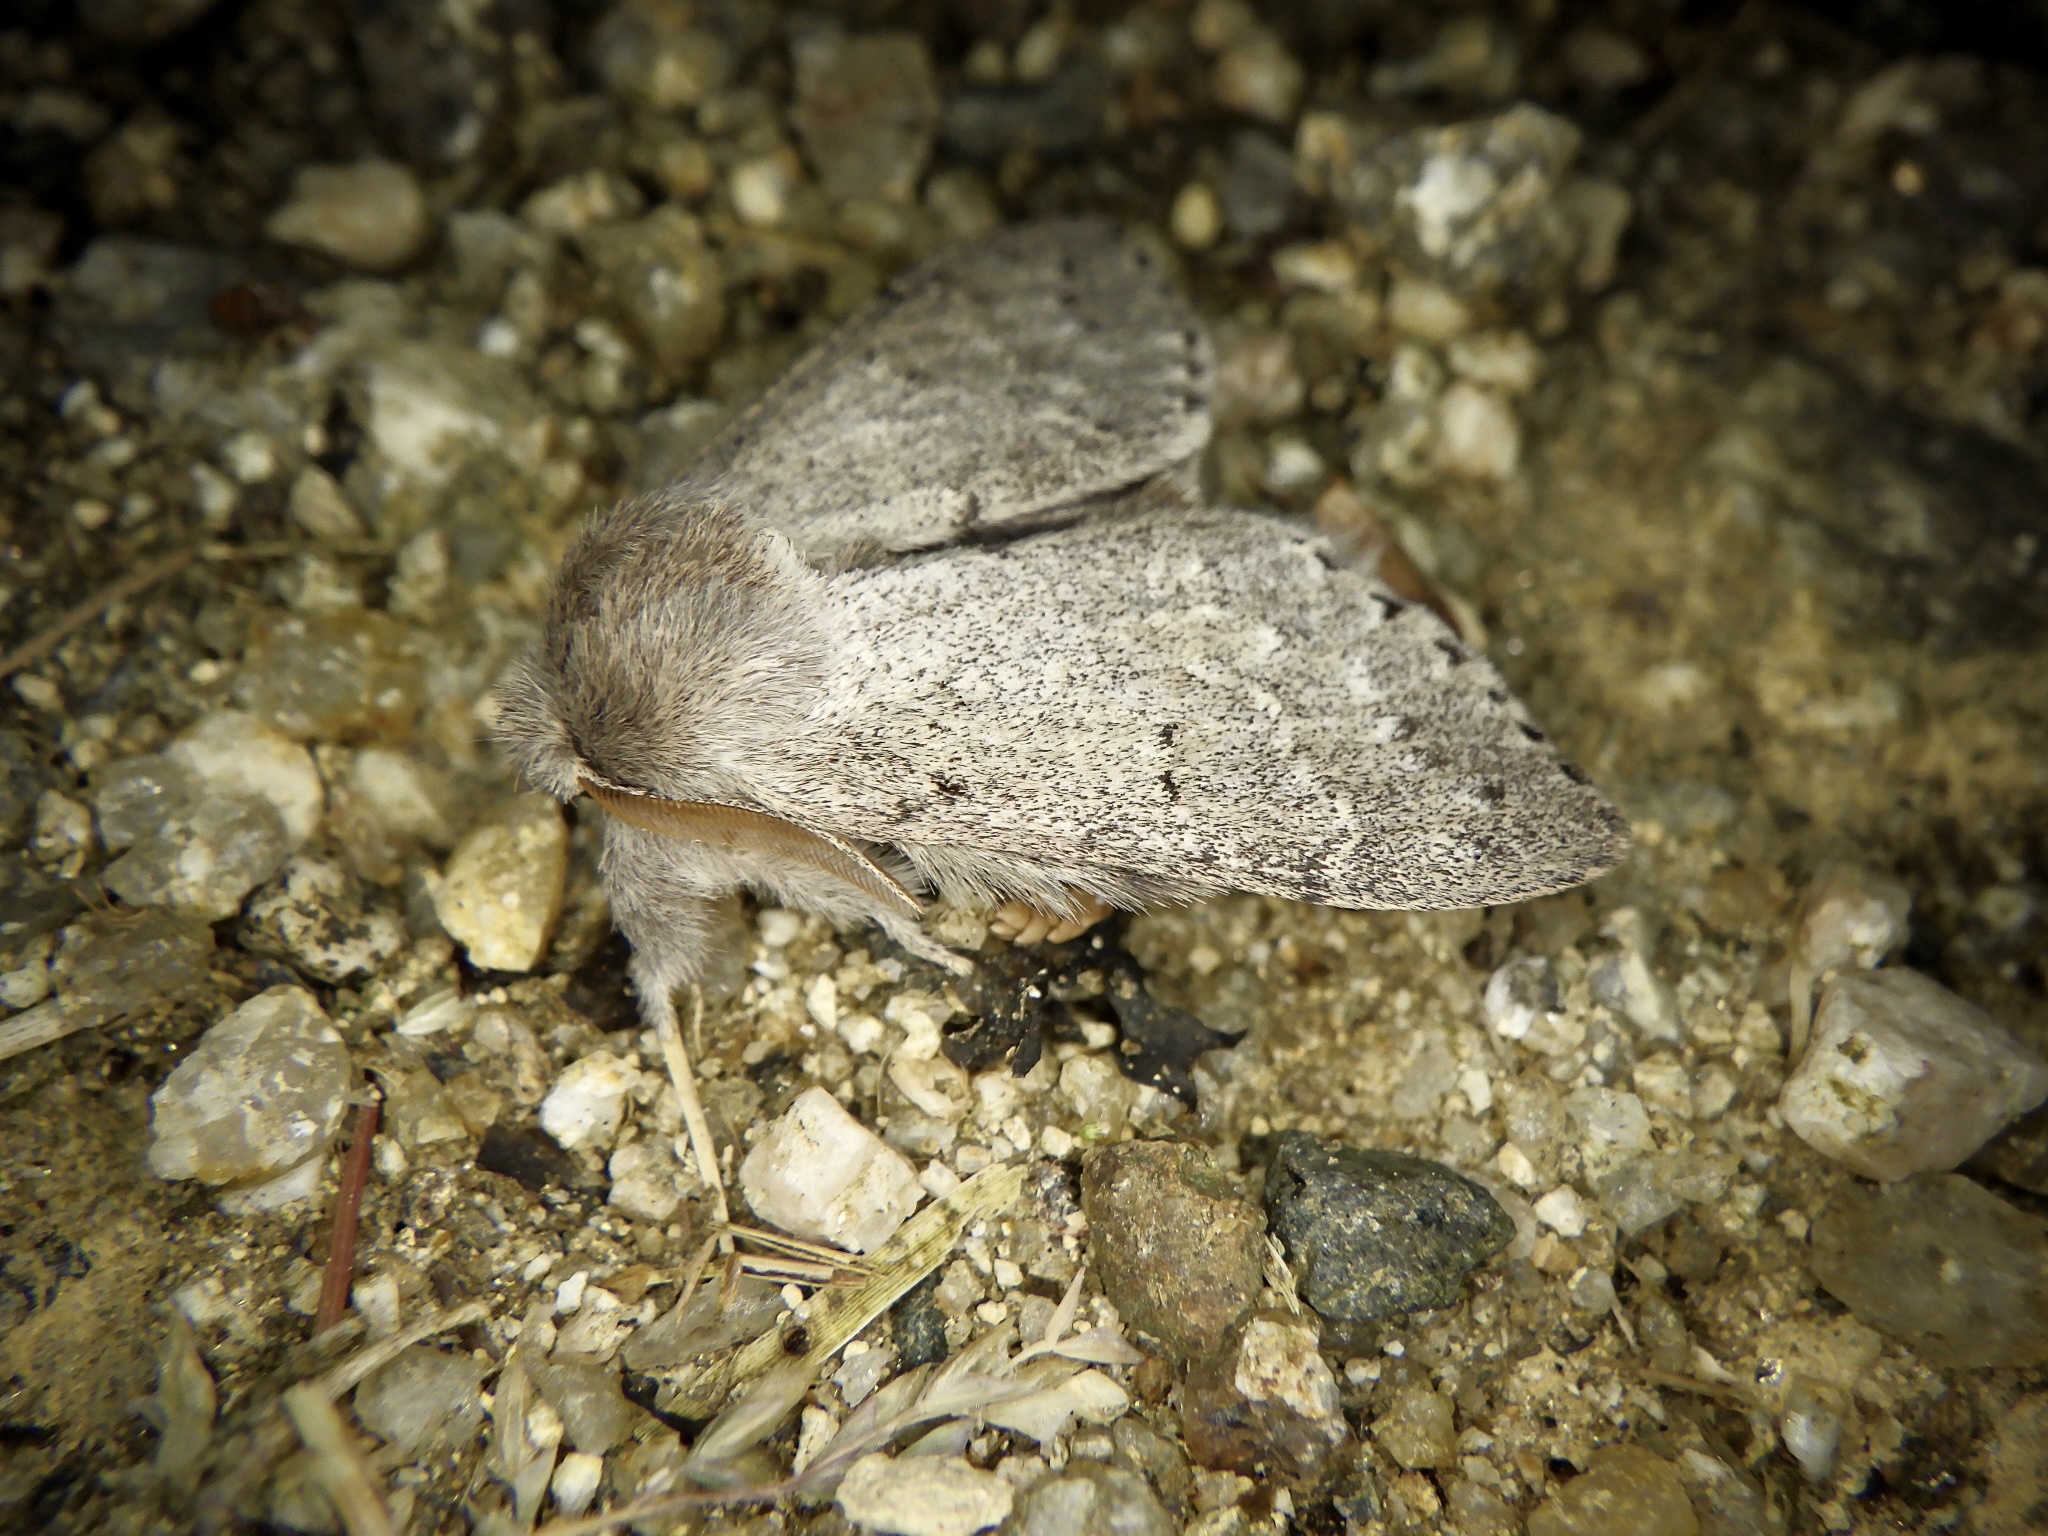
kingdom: Animalia
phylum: Arthropoda
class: Insecta
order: Lepidoptera
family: Notodontidae
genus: Cnethodonta
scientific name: Cnethodonta grisescens
